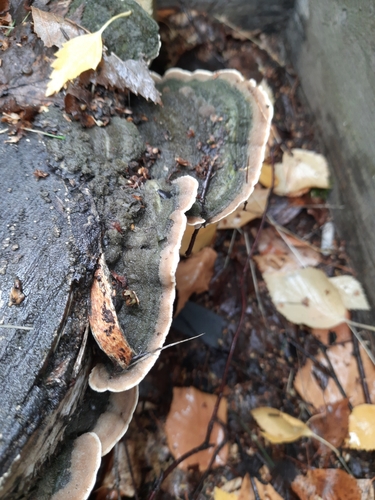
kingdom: Fungi
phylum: Basidiomycota
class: Agaricomycetes
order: Polyporales
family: Cerrenaceae
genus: Cerrena
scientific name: Cerrena unicolor
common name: Mossy maze polypore
